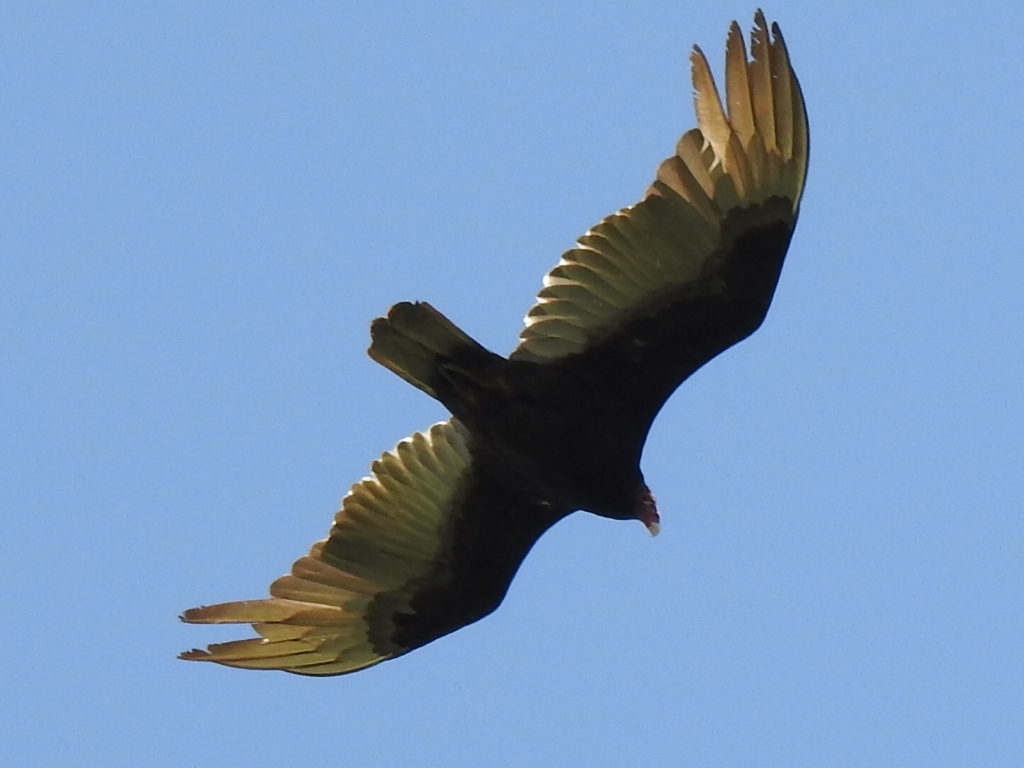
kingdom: Animalia
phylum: Chordata
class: Aves
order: Accipitriformes
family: Cathartidae
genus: Cathartes
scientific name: Cathartes aura
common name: Turkey vulture
